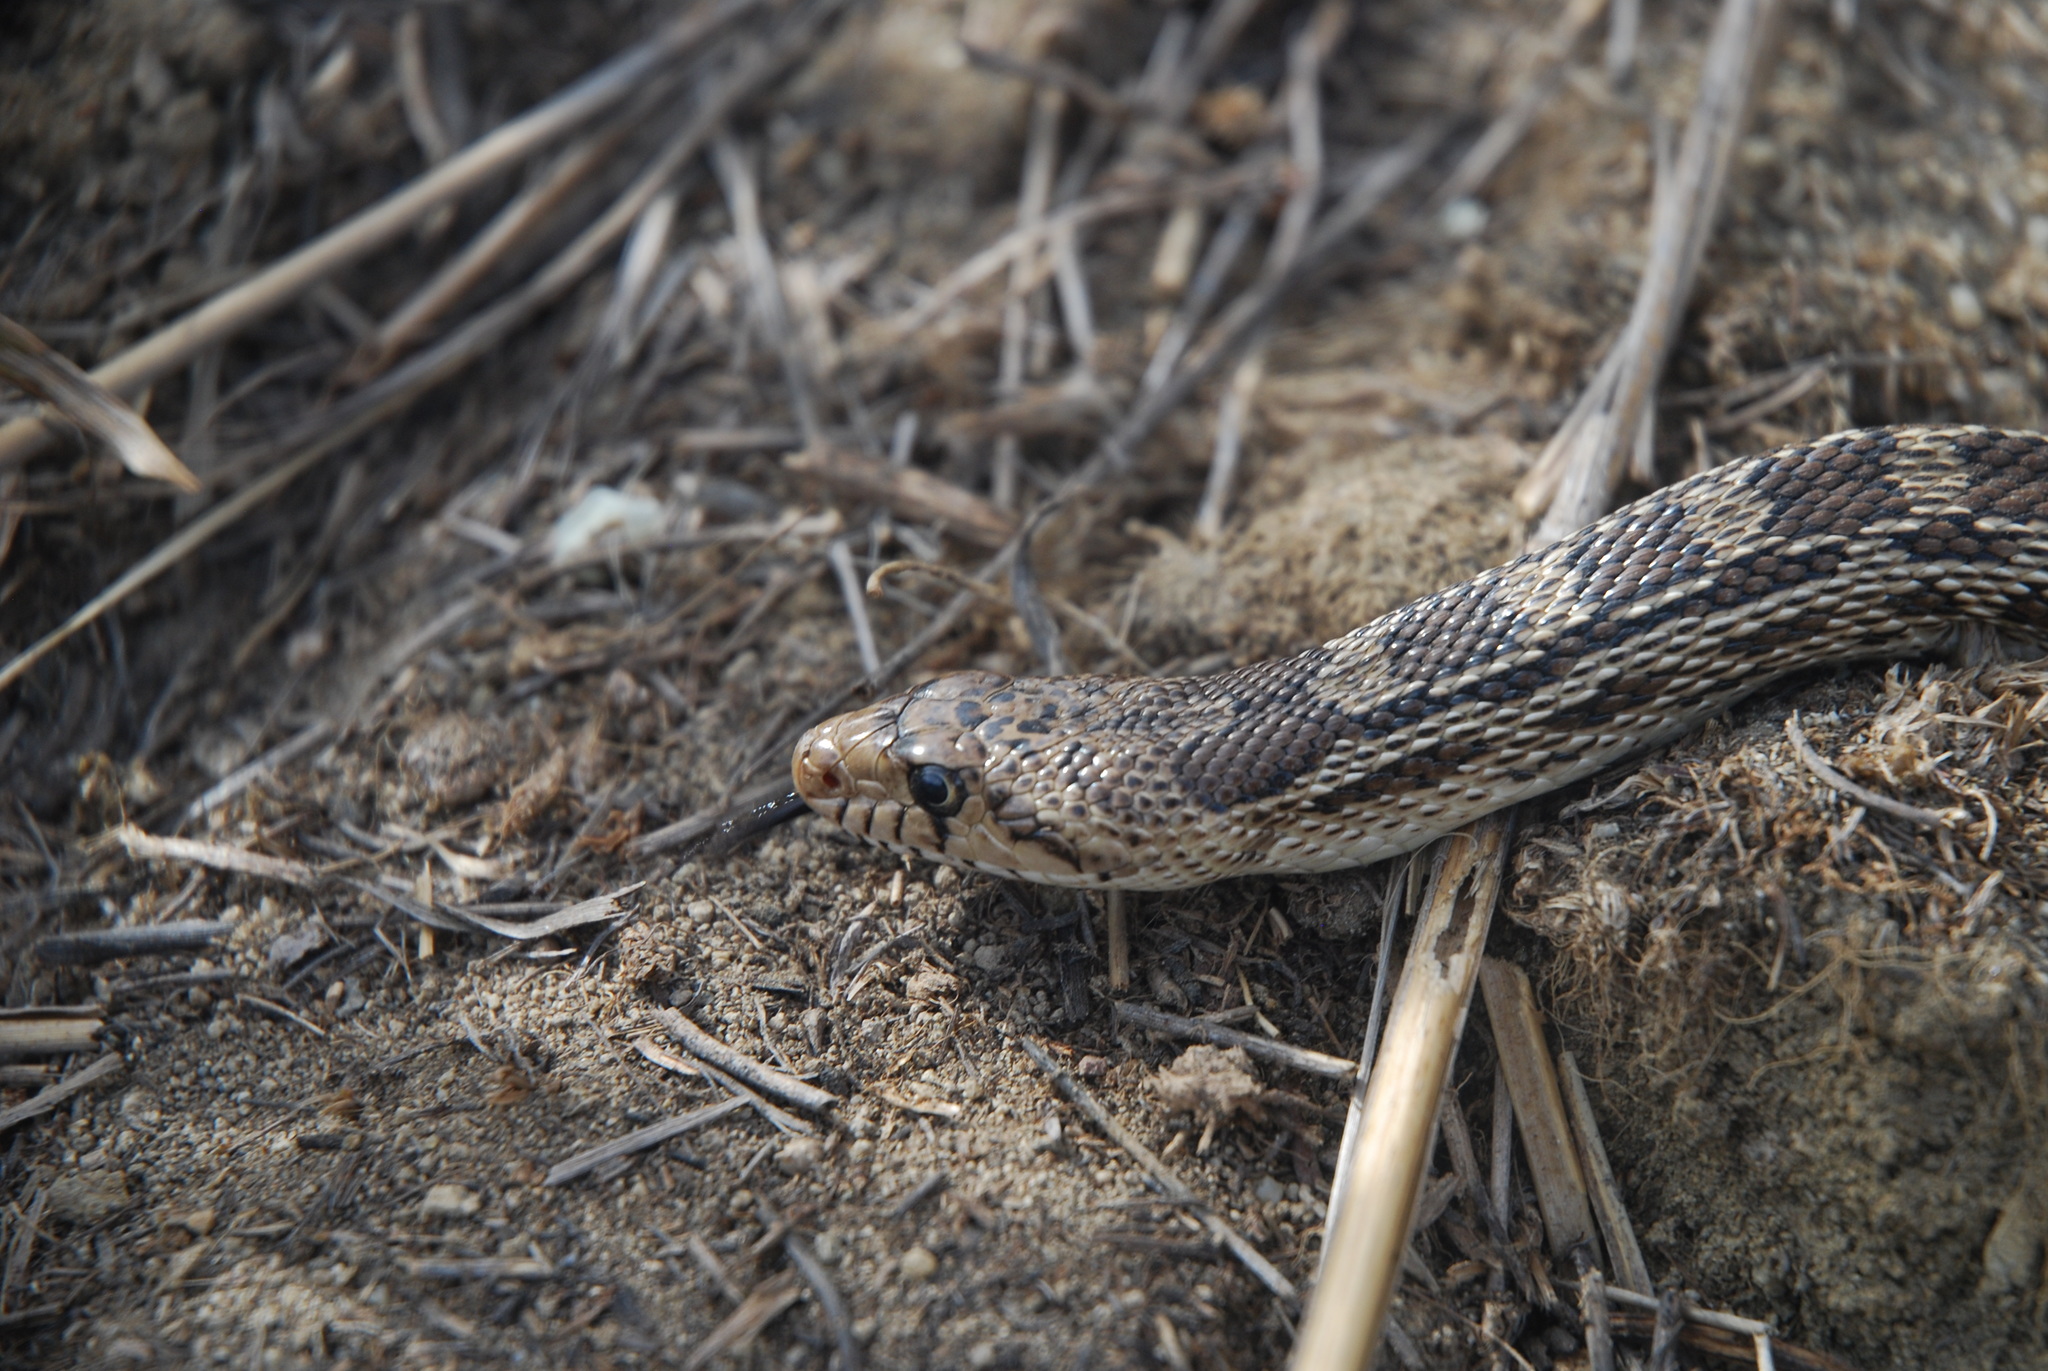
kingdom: Animalia
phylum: Chordata
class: Squamata
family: Colubridae
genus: Pituophis
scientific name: Pituophis catenifer
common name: Gopher snake
